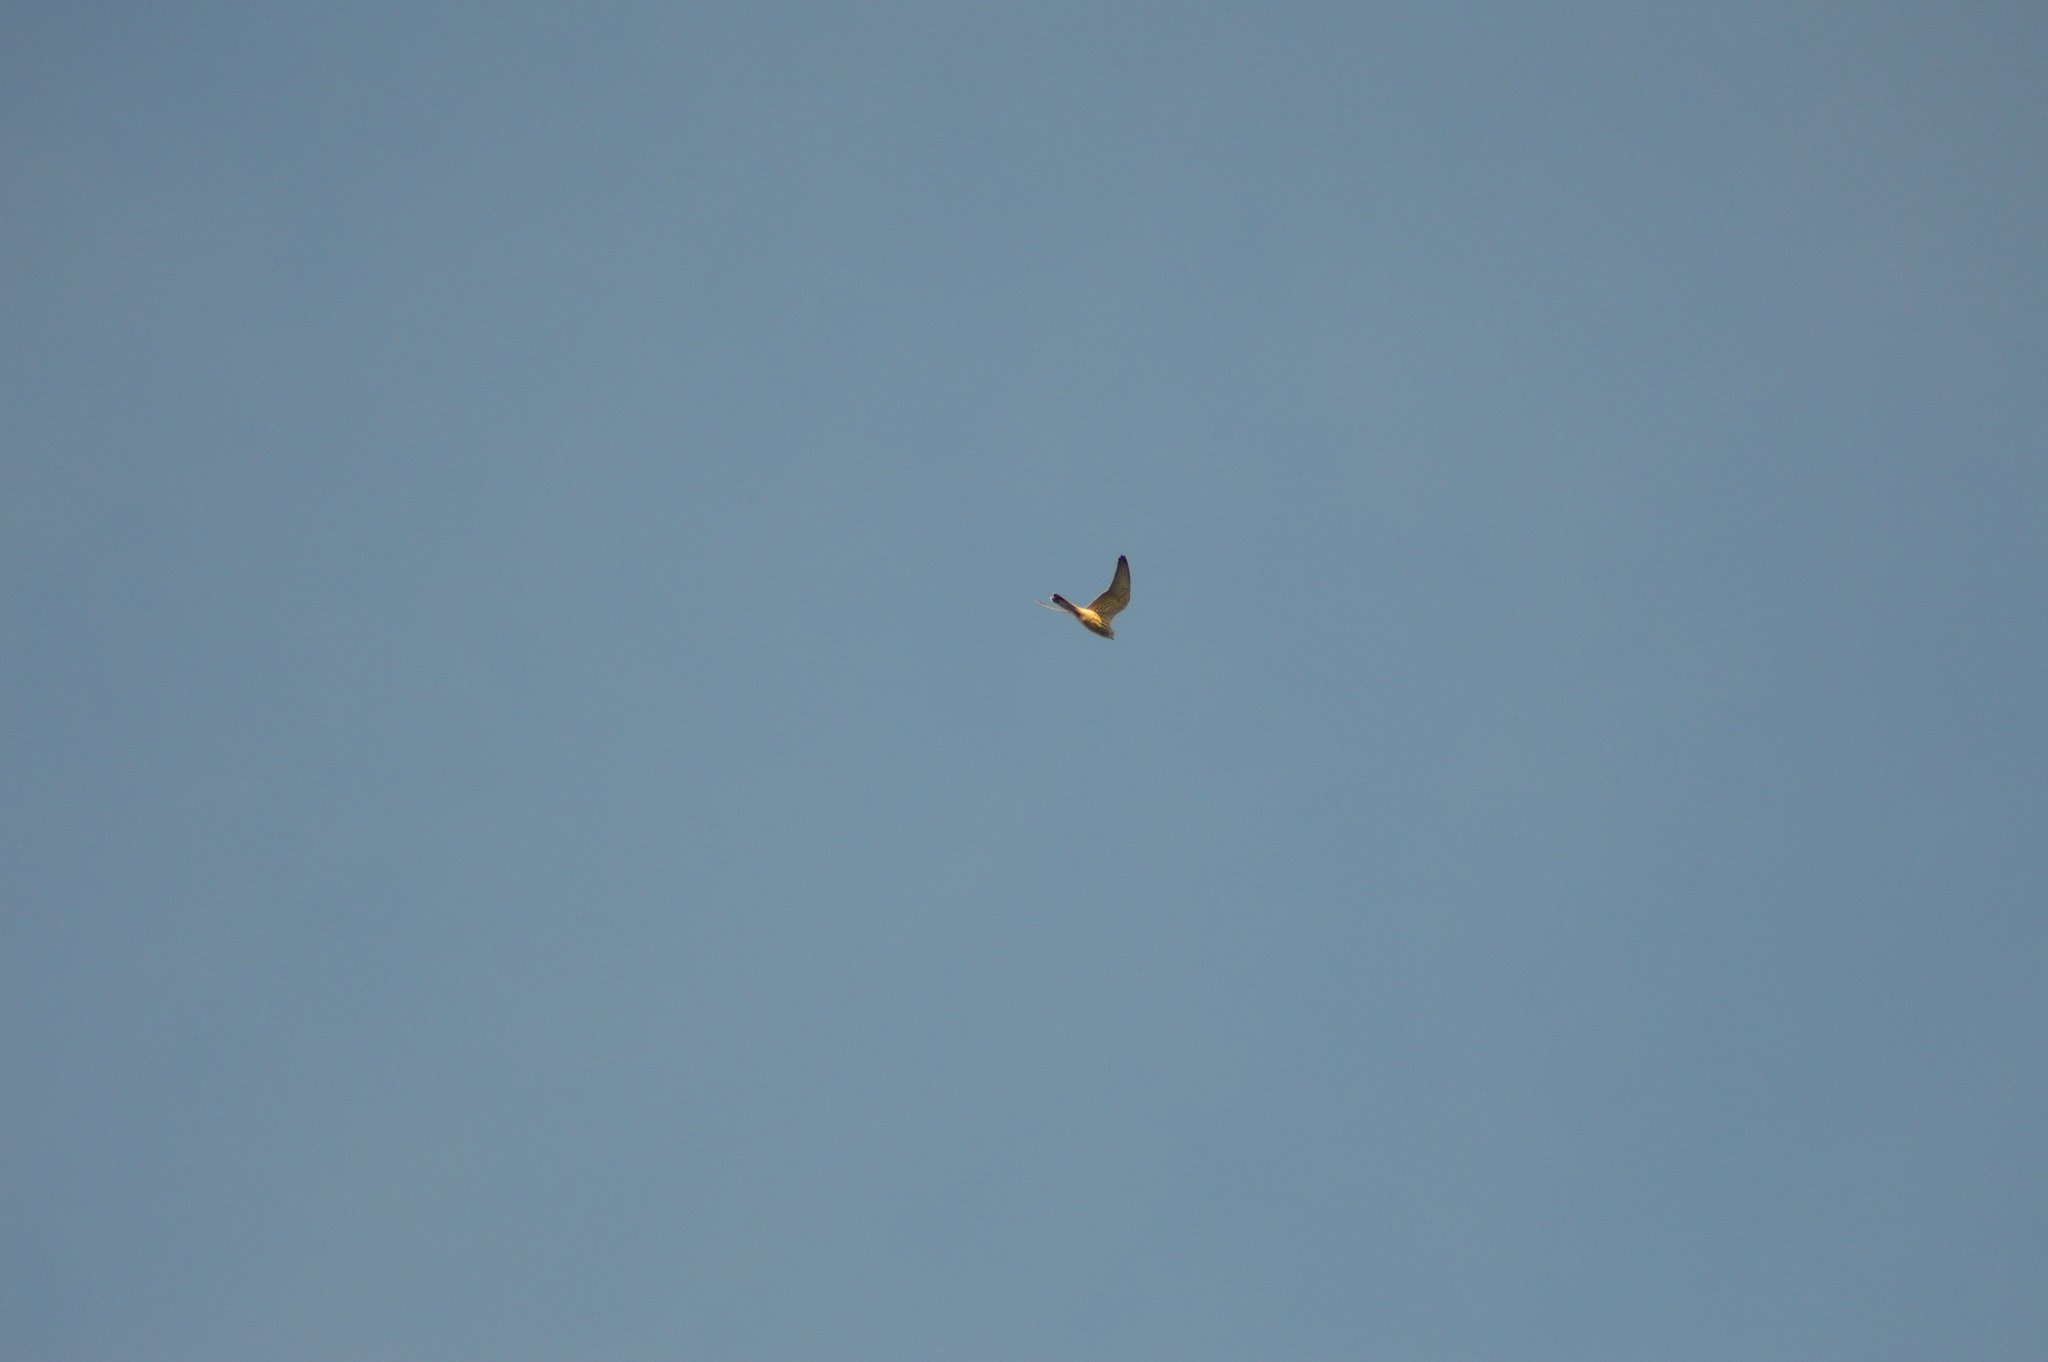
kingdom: Animalia
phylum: Chordata
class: Aves
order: Falconiformes
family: Falconidae
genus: Falco
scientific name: Falco tinnunculus
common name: Common kestrel
